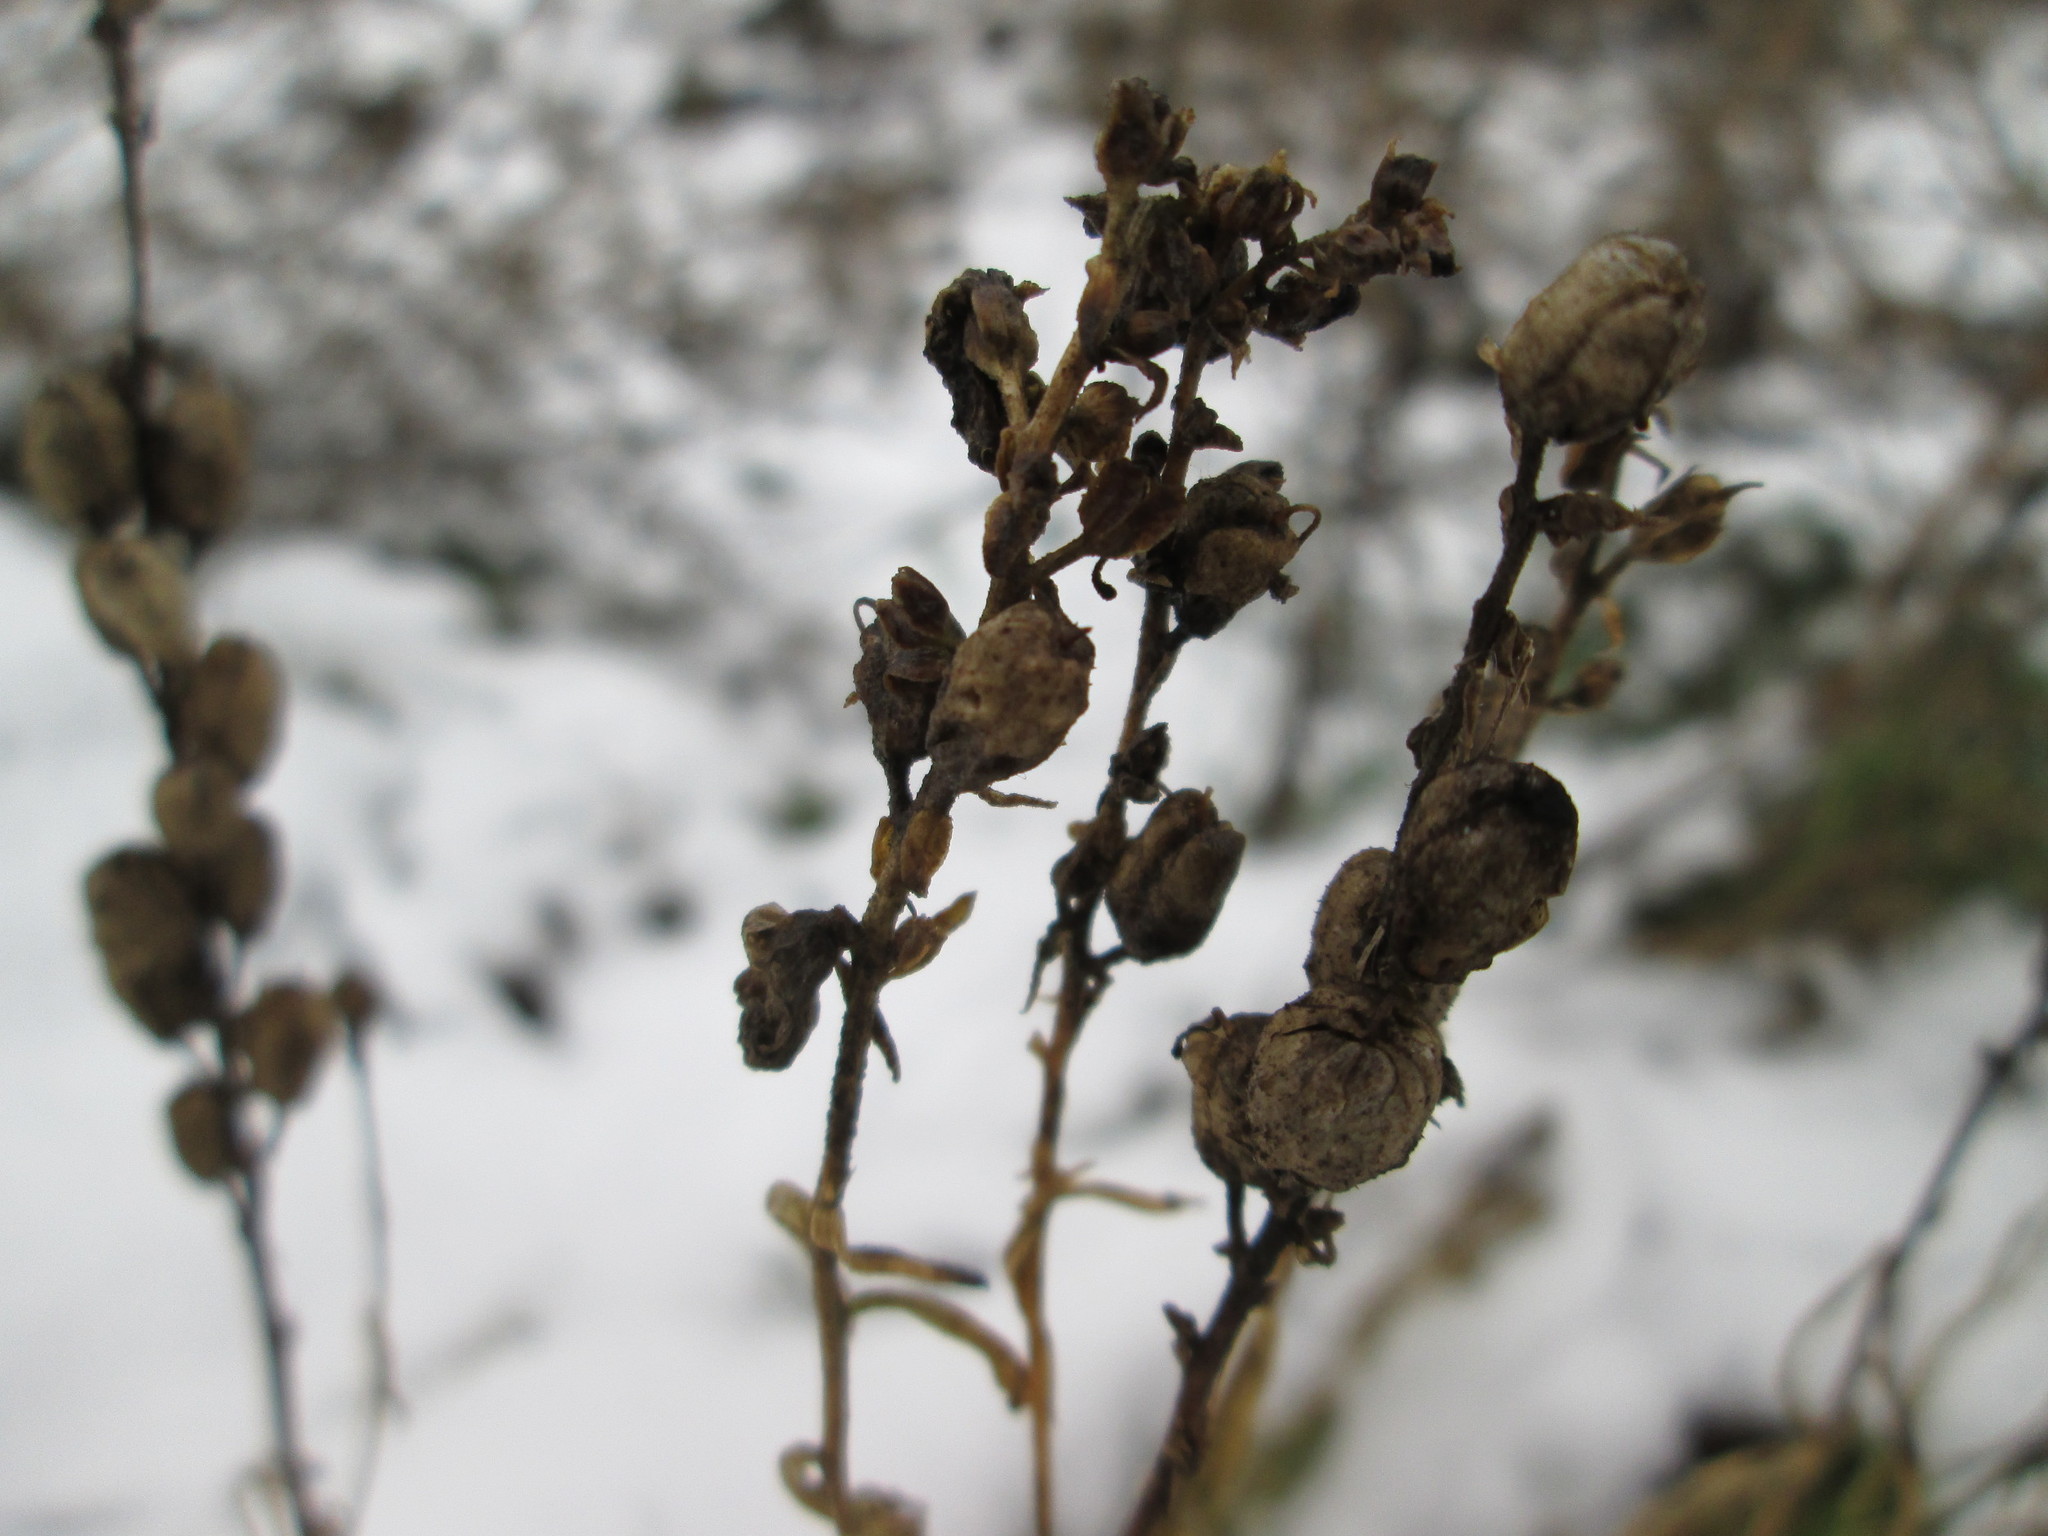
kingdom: Plantae
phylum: Tracheophyta
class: Magnoliopsida
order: Lamiales
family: Plantaginaceae
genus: Linaria
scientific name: Linaria vulgaris
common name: Butter and eggs
